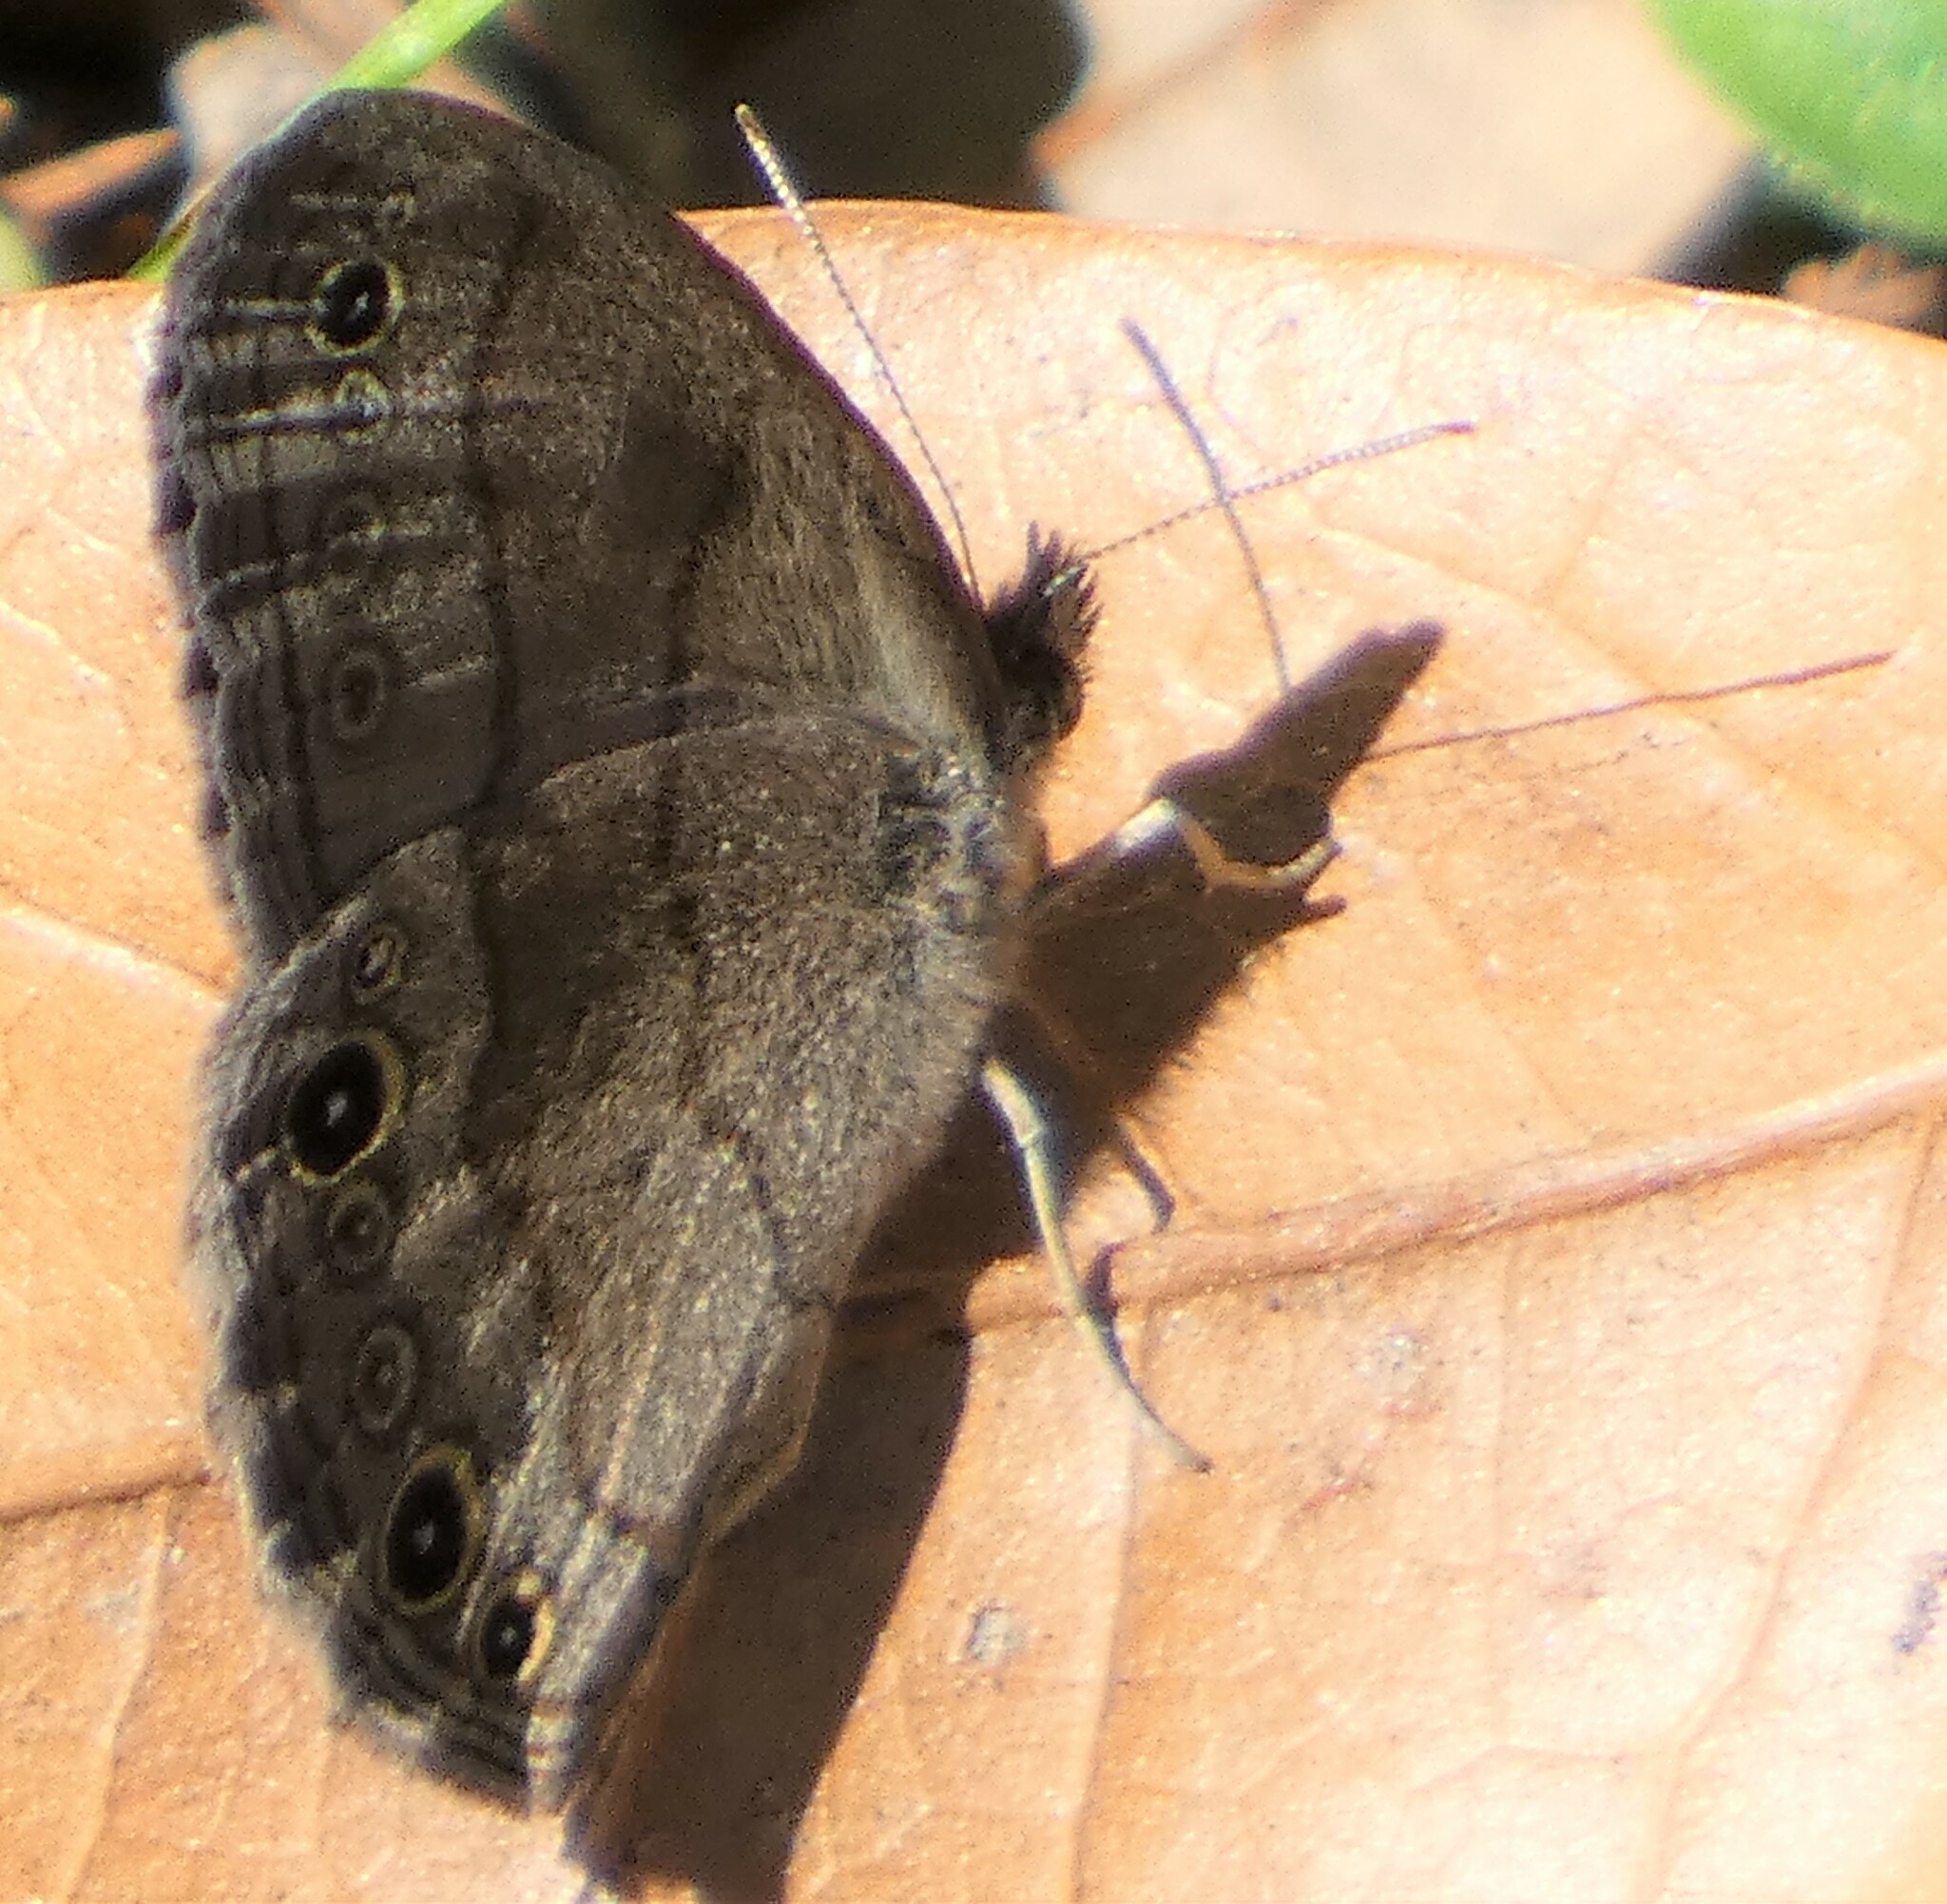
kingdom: Animalia
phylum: Arthropoda
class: Insecta
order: Lepidoptera
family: Nymphalidae
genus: Hermeuptychia
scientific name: Hermeuptychia hermes
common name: Hermes satyr
